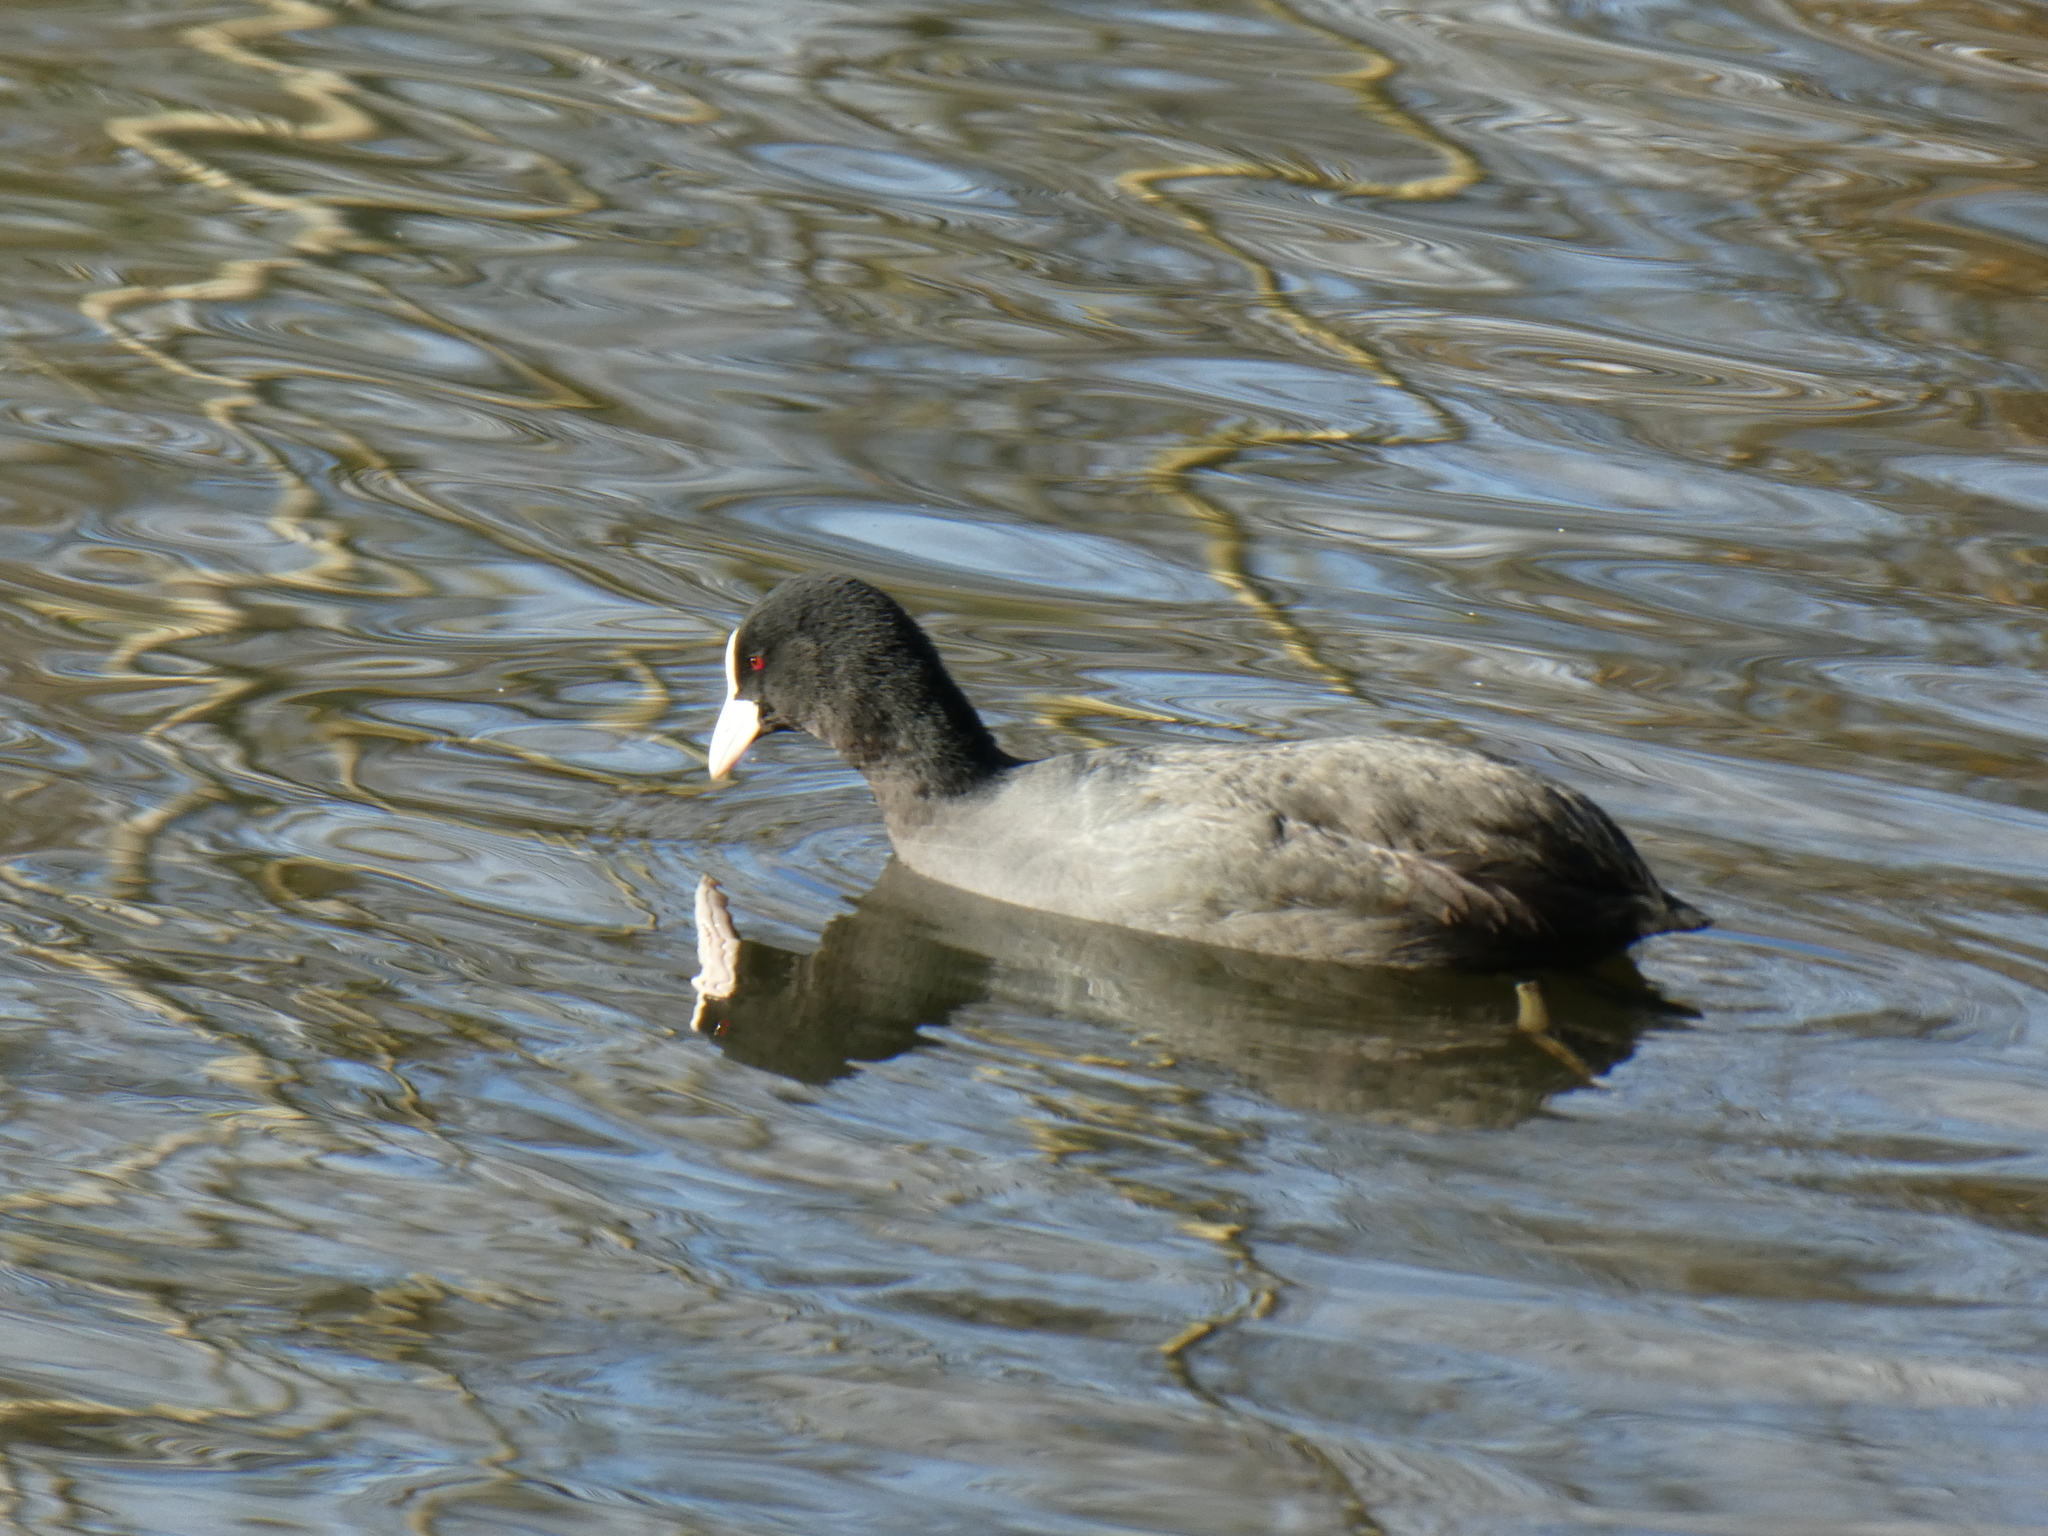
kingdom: Animalia
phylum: Chordata
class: Aves
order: Gruiformes
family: Rallidae
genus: Fulica
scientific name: Fulica atra
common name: Eurasian coot
